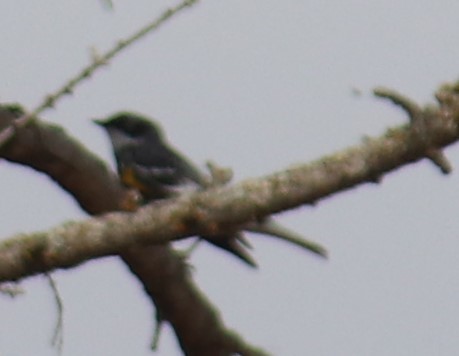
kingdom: Animalia
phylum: Chordata
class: Aves
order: Passeriformes
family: Parulidae
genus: Setophaga
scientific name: Setophaga coronata
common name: Myrtle warbler
